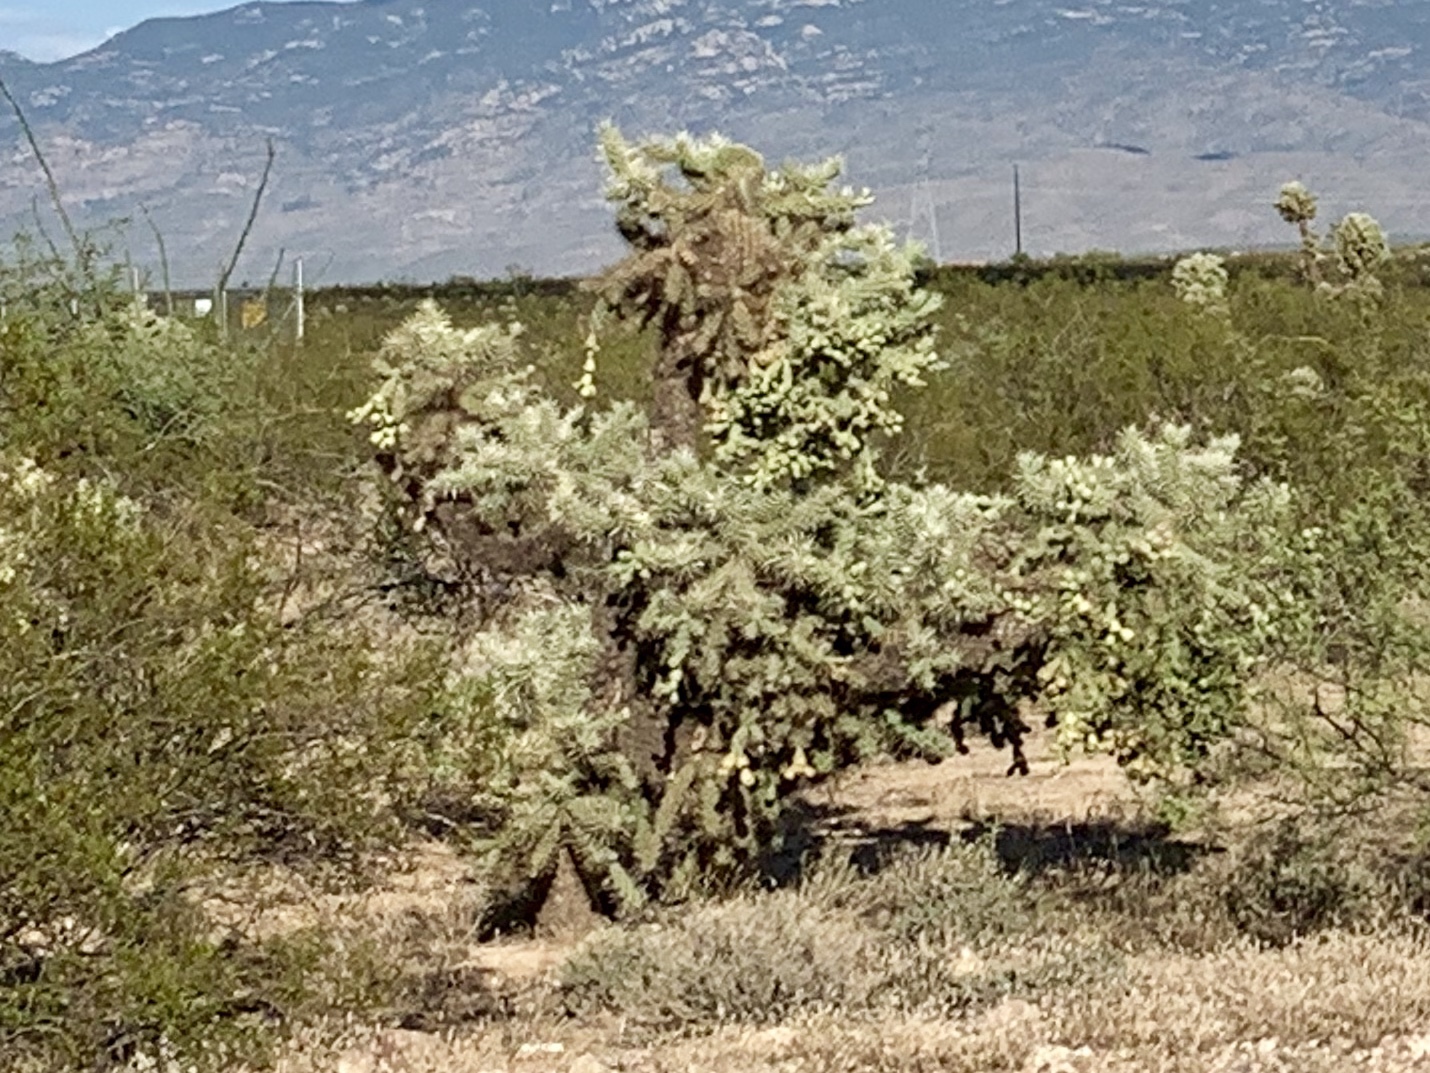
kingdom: Plantae
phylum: Tracheophyta
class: Magnoliopsida
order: Caryophyllales
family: Cactaceae
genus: Cylindropuntia
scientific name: Cylindropuntia fulgida
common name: Jumping cholla
